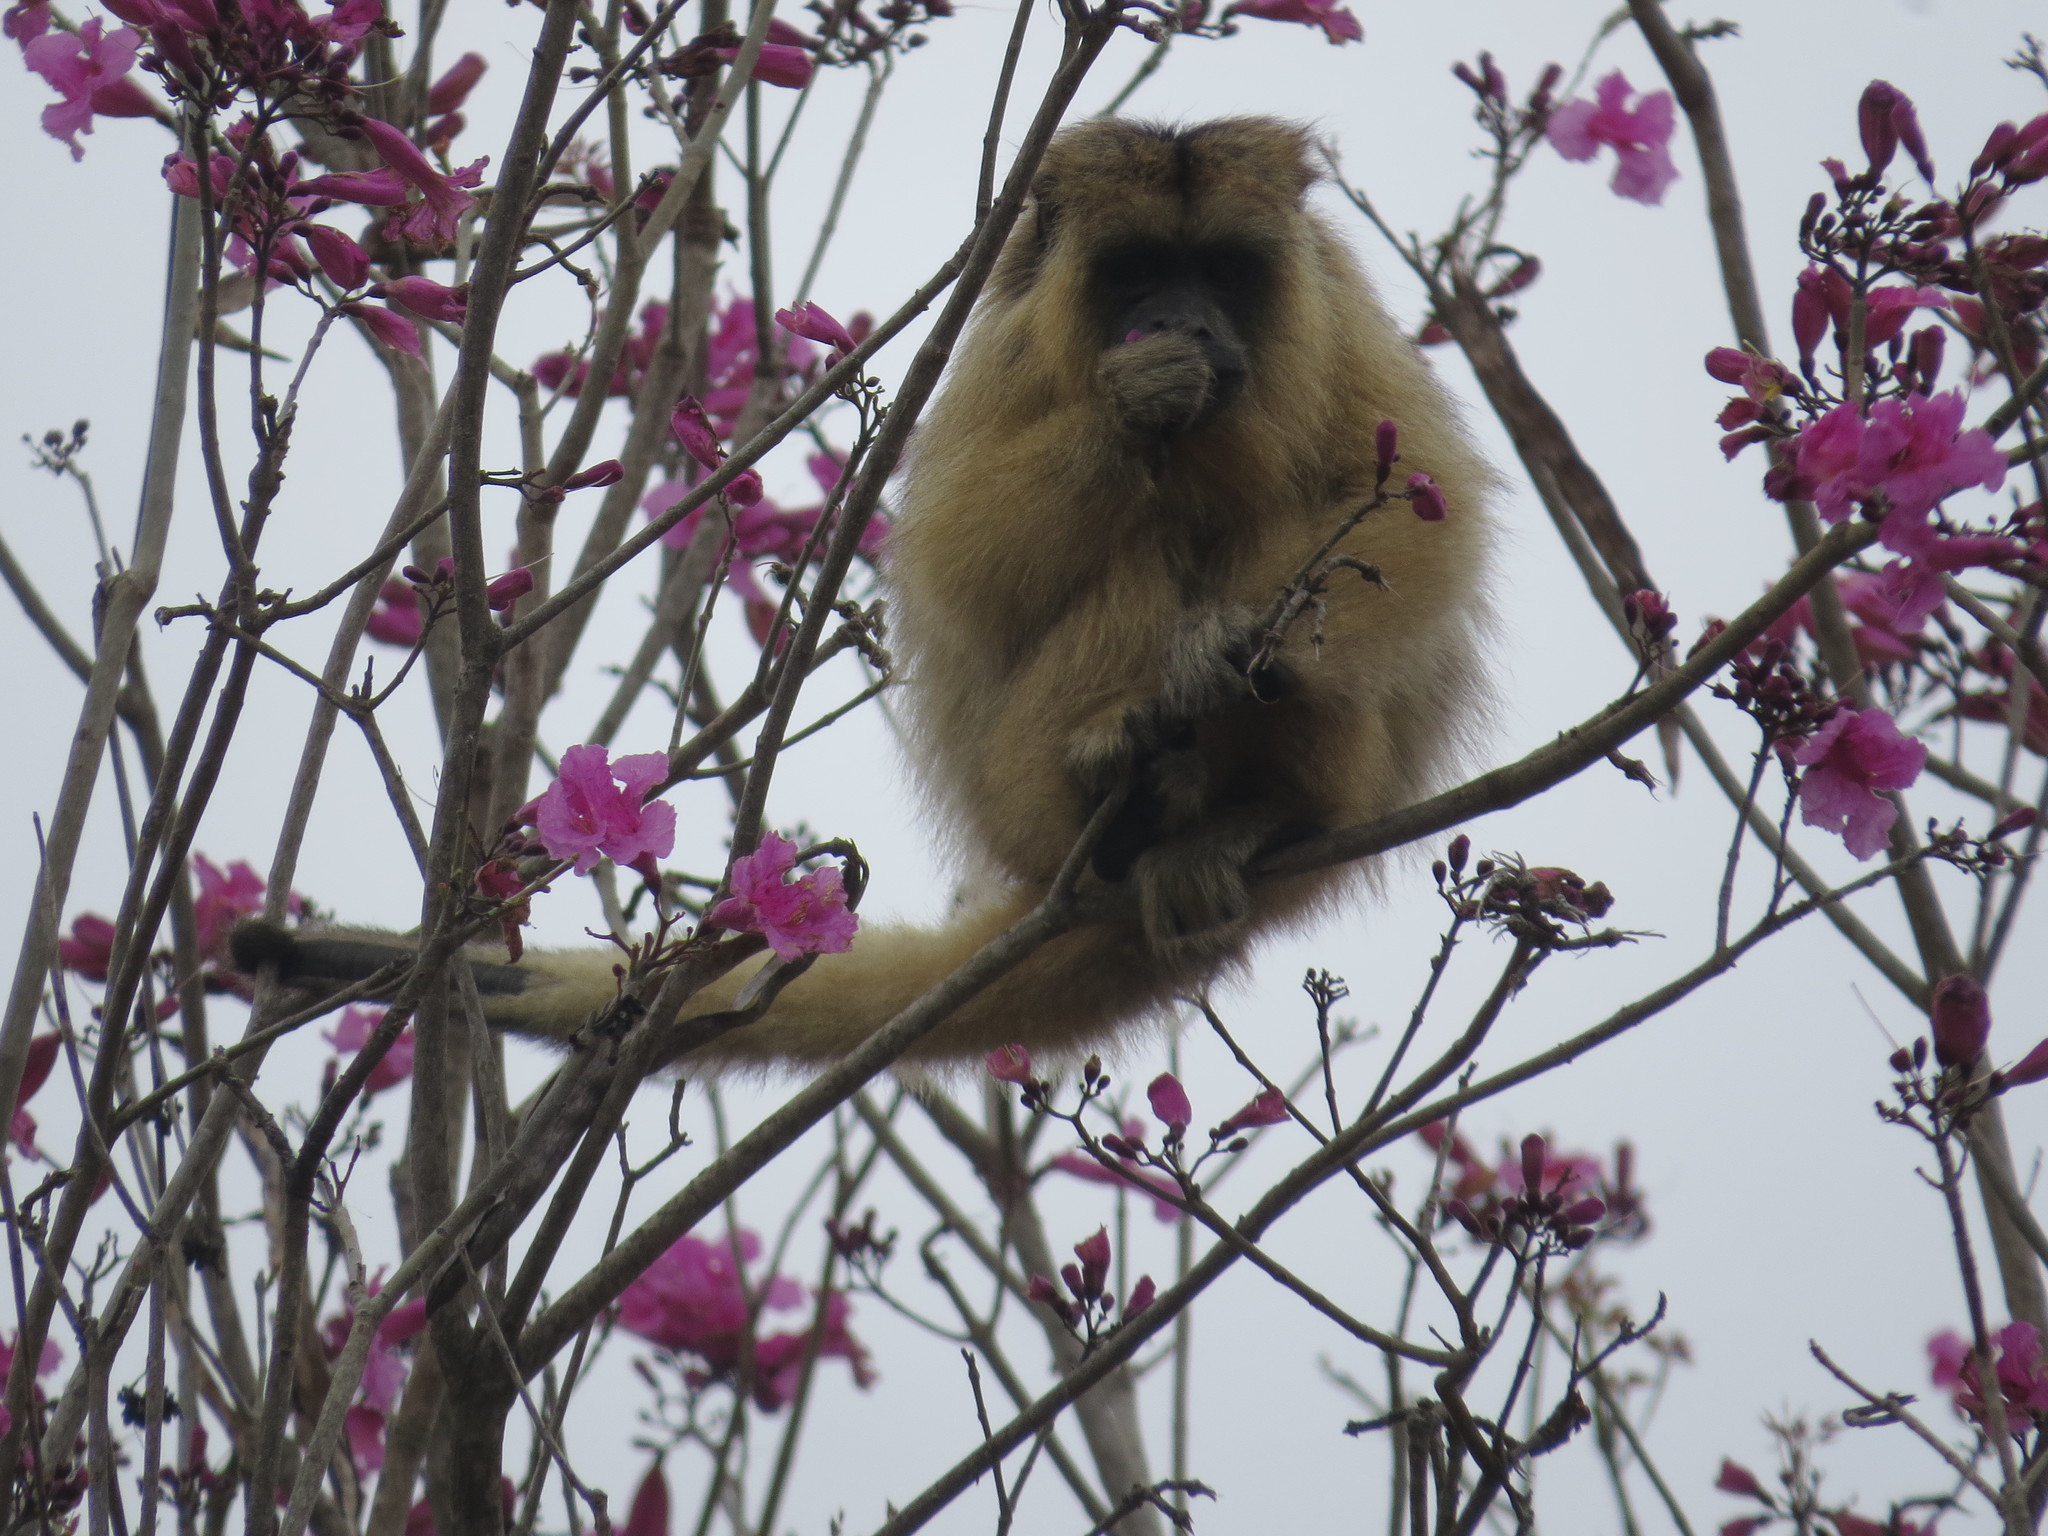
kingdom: Animalia
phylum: Chordata
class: Mammalia
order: Primates
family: Atelidae
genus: Alouatta
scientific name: Alouatta caraya
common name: Black howler
